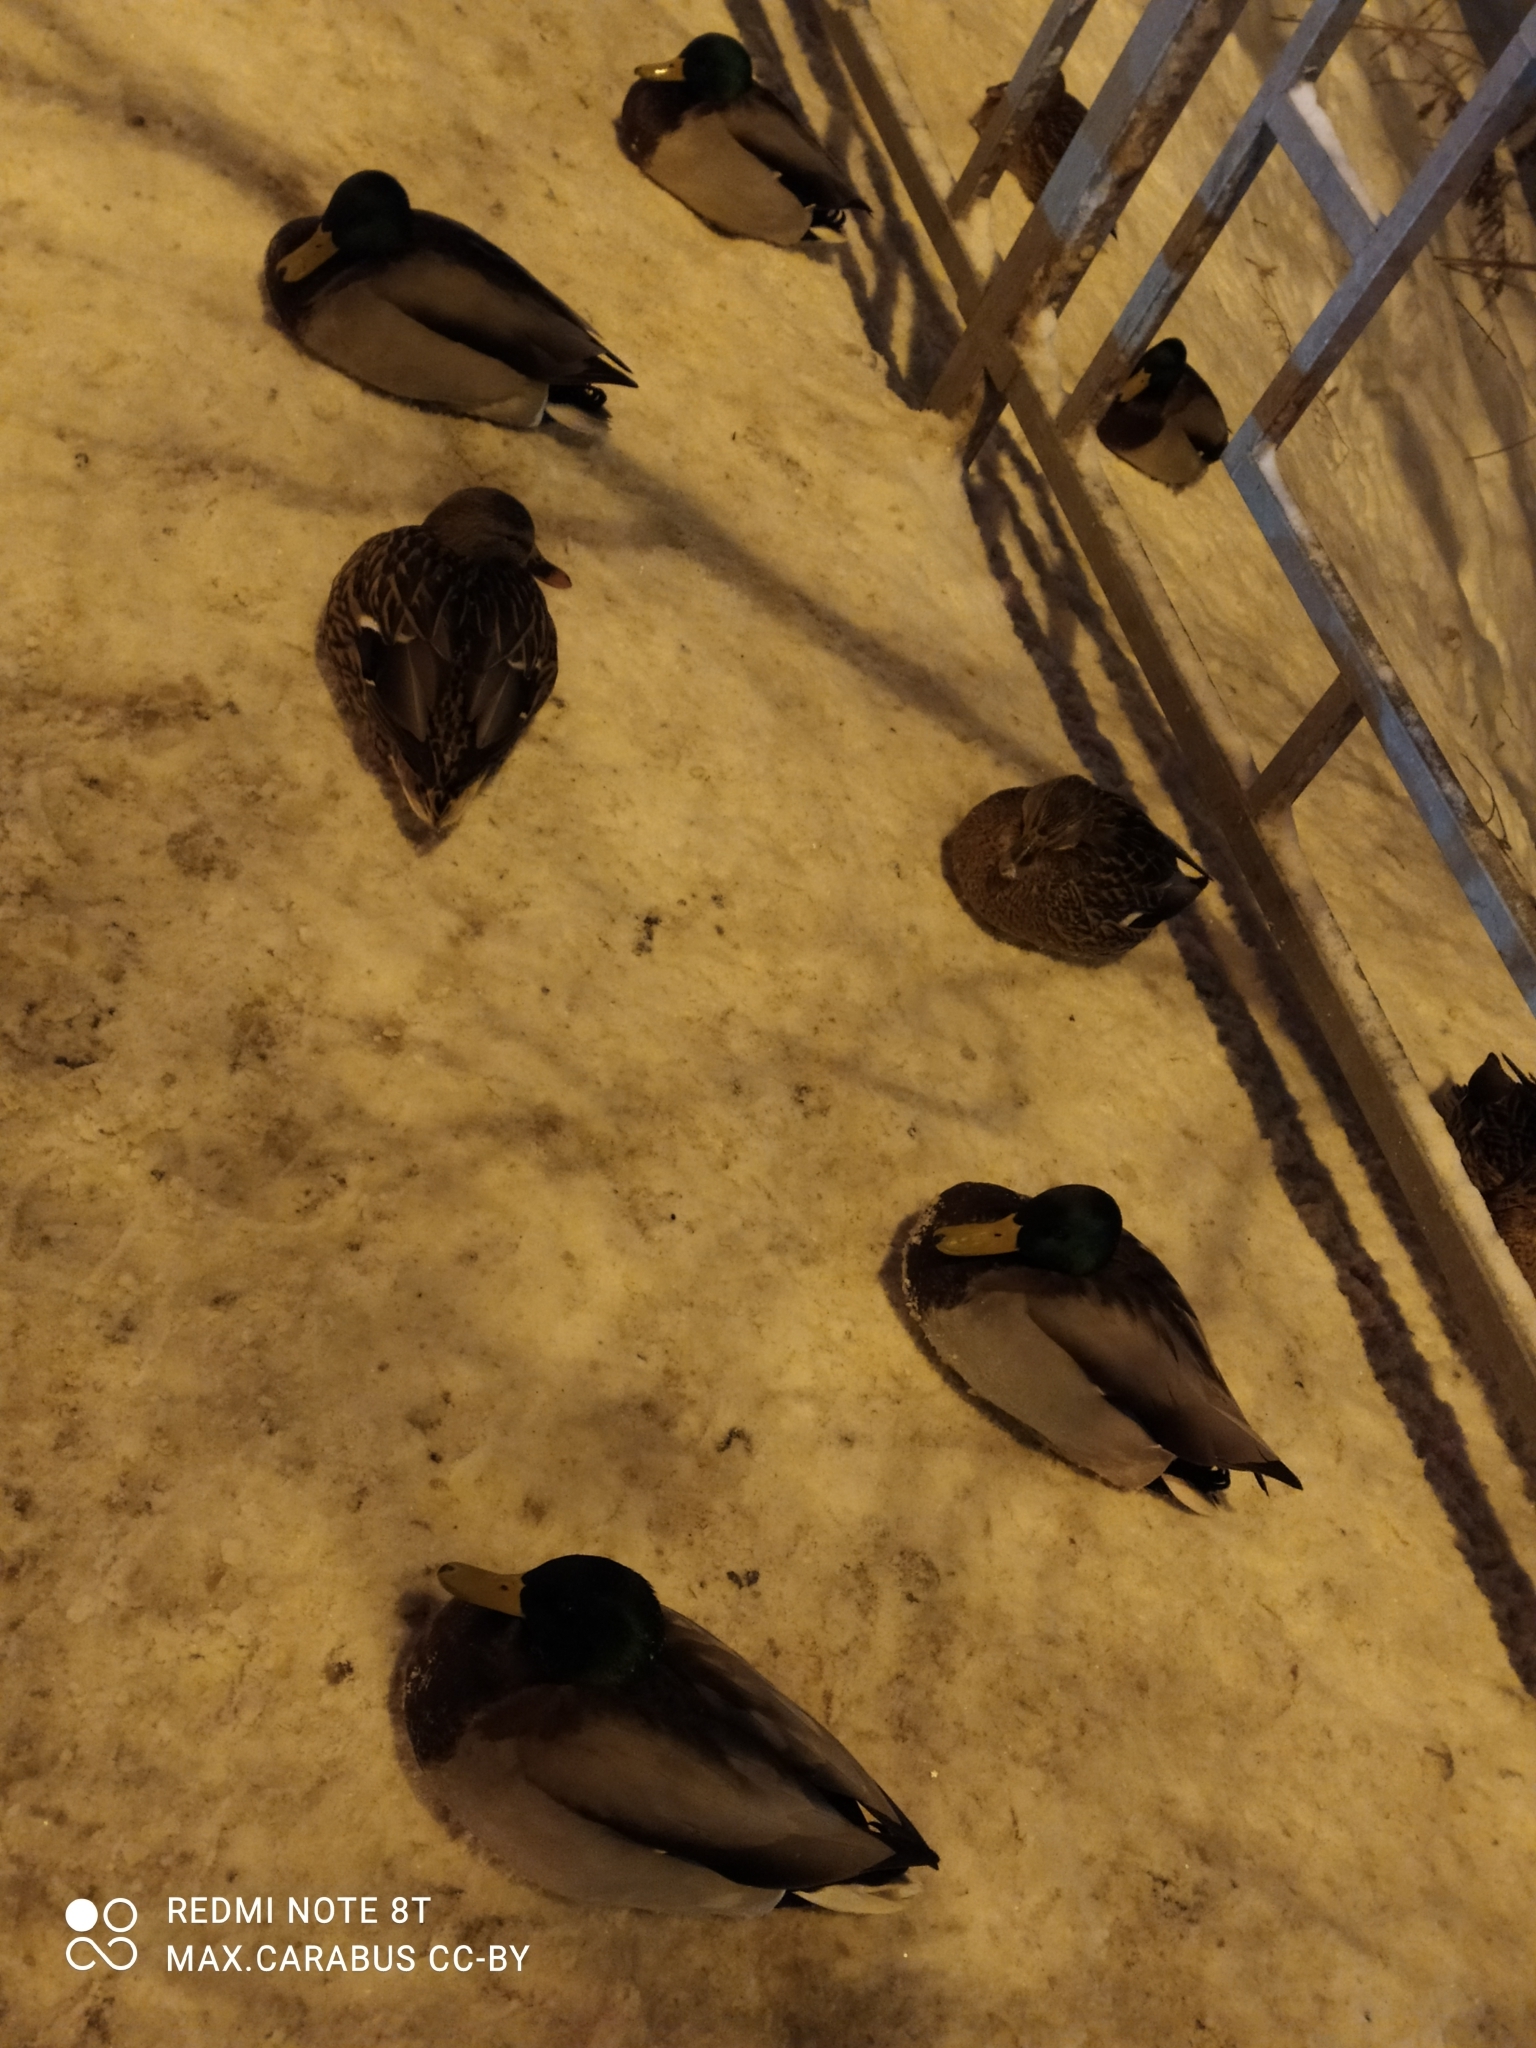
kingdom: Animalia
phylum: Chordata
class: Aves
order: Anseriformes
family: Anatidae
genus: Anas
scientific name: Anas platyrhynchos
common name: Mallard
